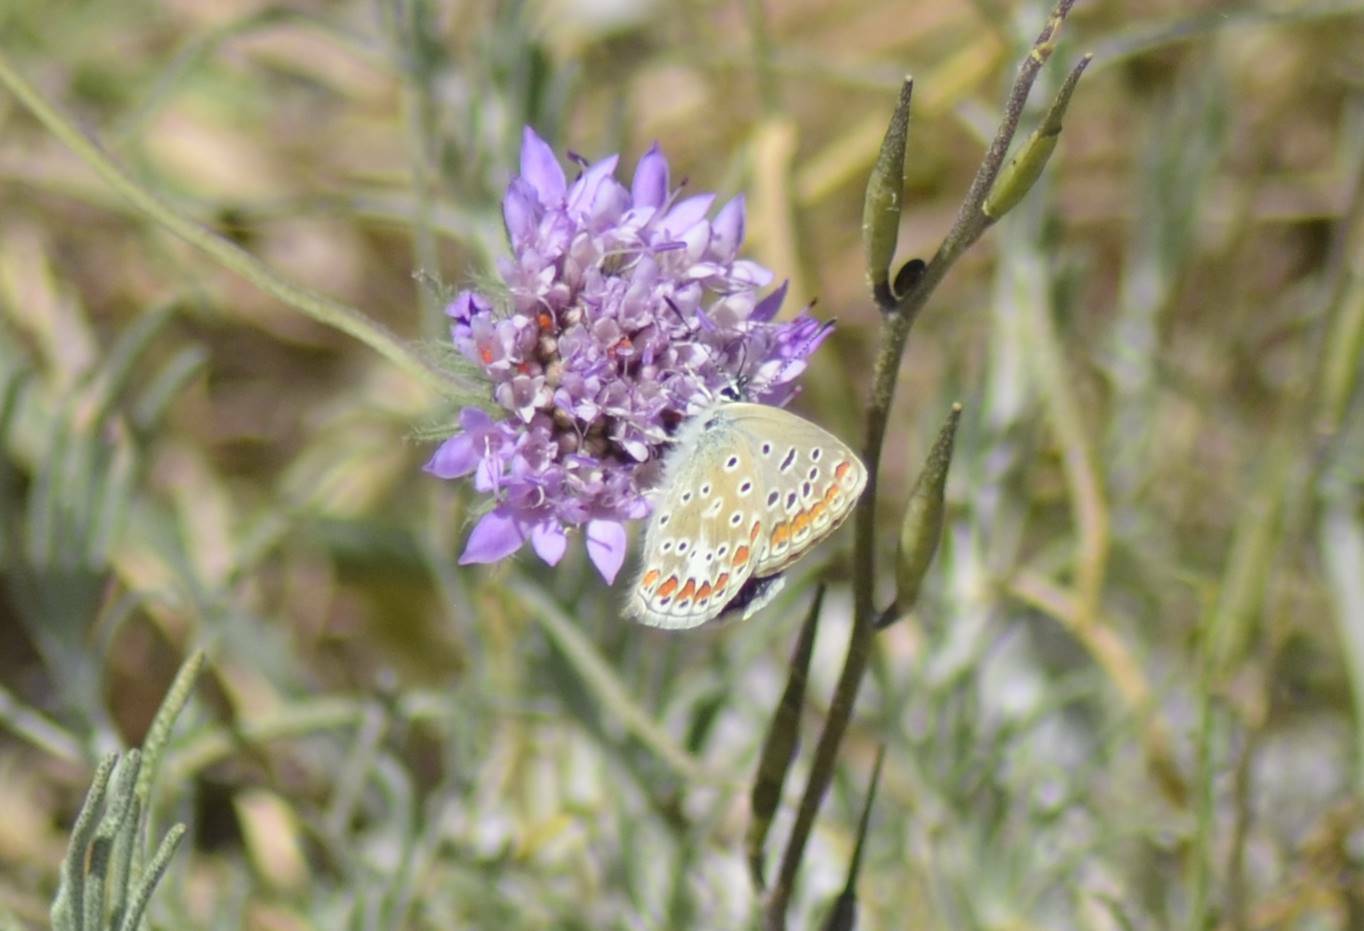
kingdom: Animalia
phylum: Arthropoda
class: Insecta
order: Lepidoptera
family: Lycaenidae
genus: Polyommatus
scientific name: Polyommatus celina
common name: Austaut's blue
